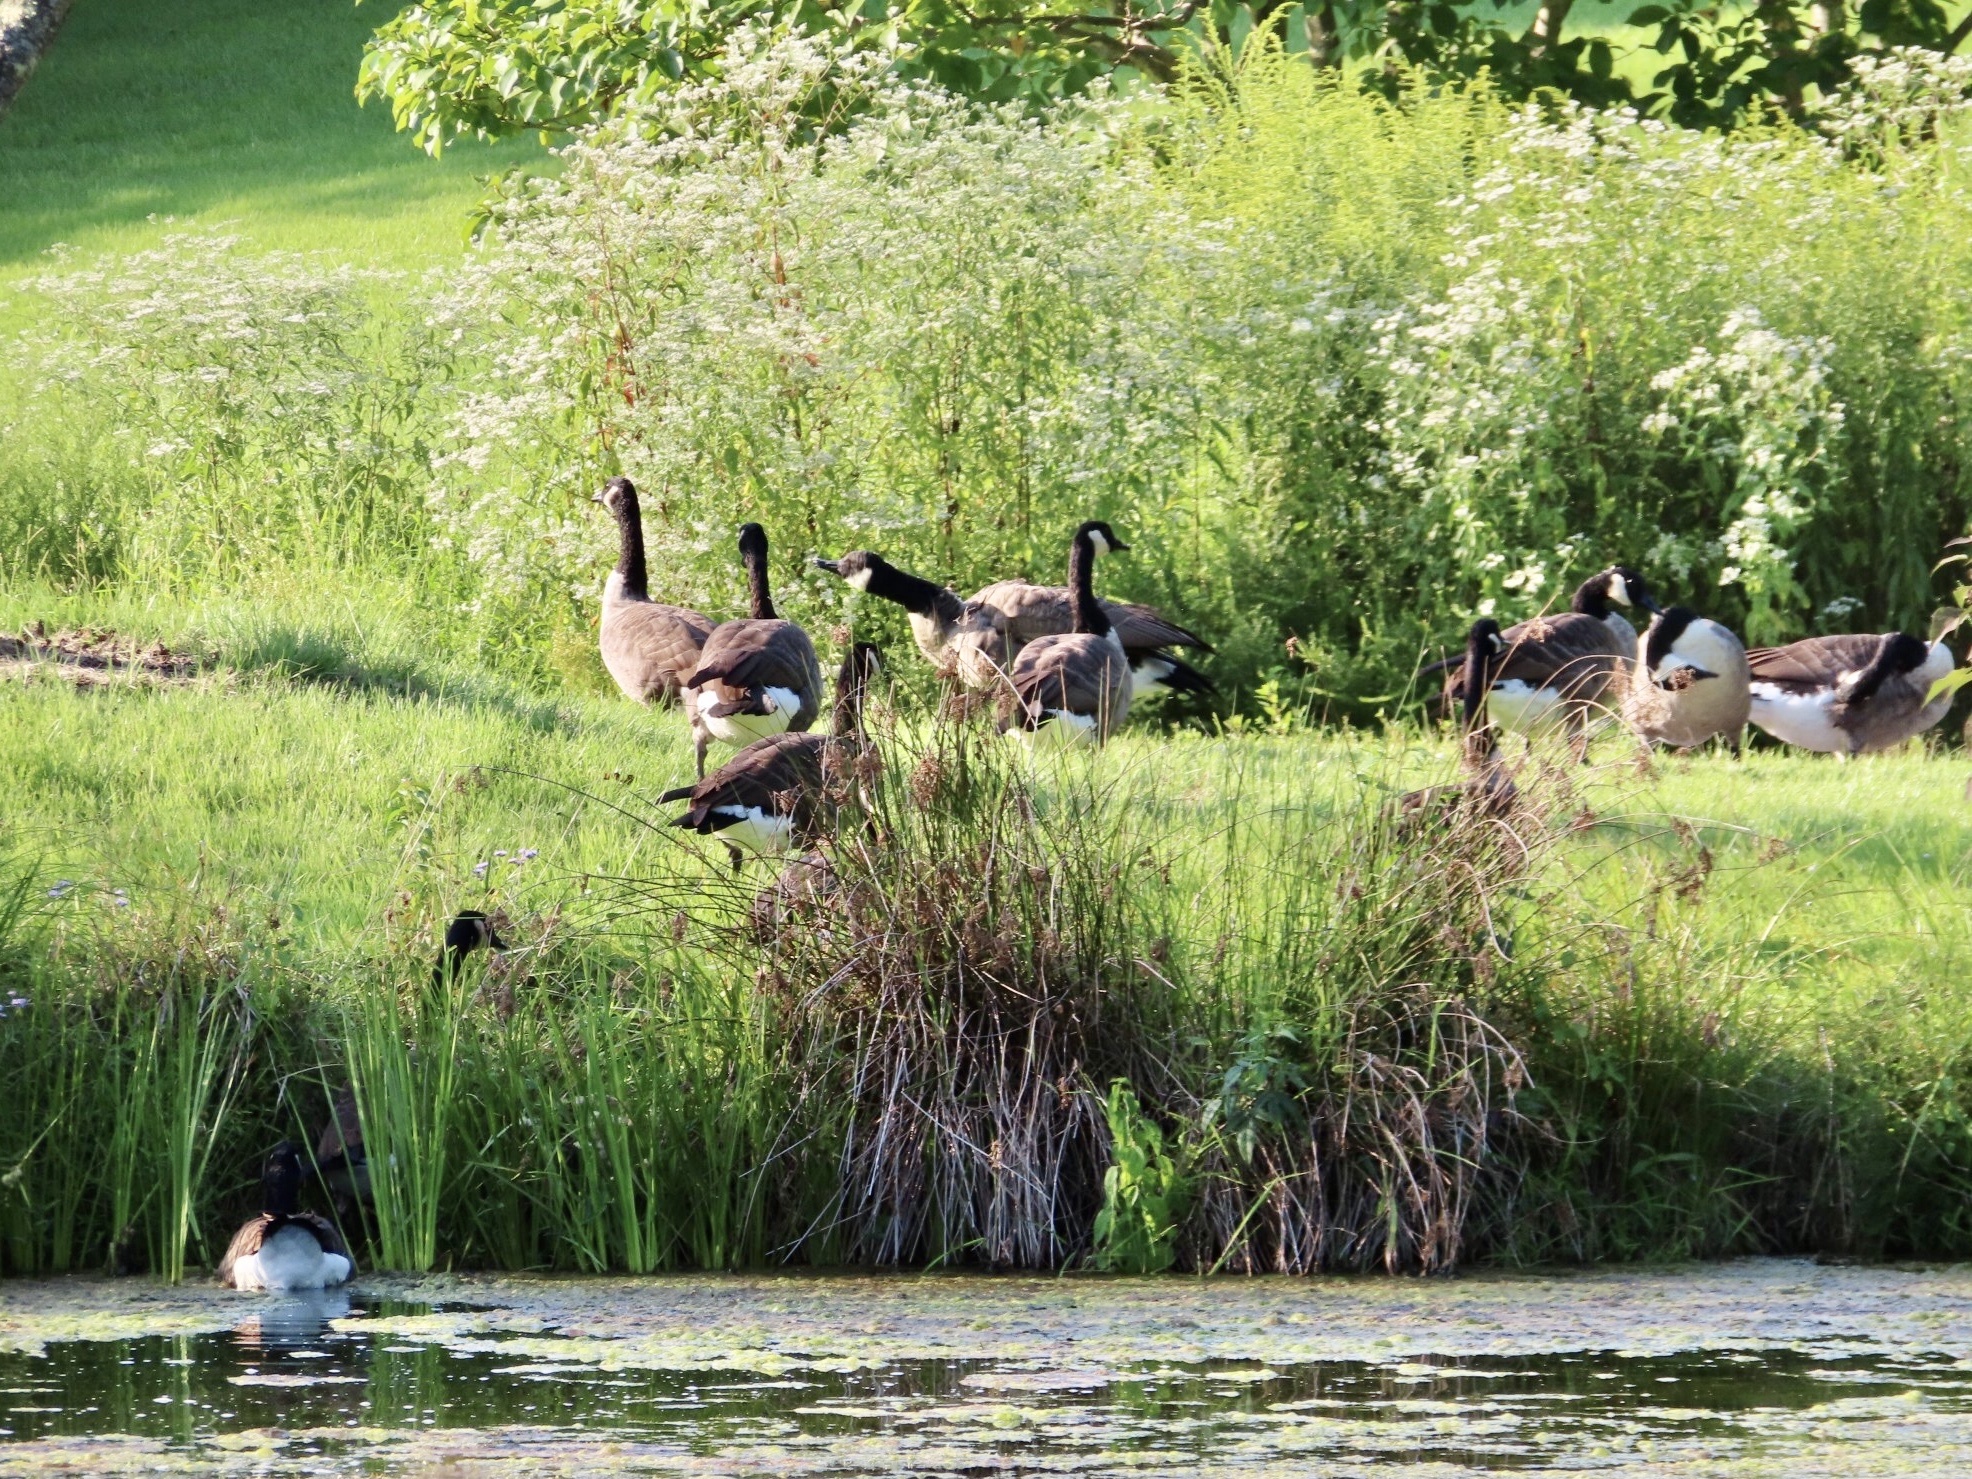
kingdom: Animalia
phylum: Chordata
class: Aves
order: Anseriformes
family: Anatidae
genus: Branta
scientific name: Branta canadensis
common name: Canada goose
